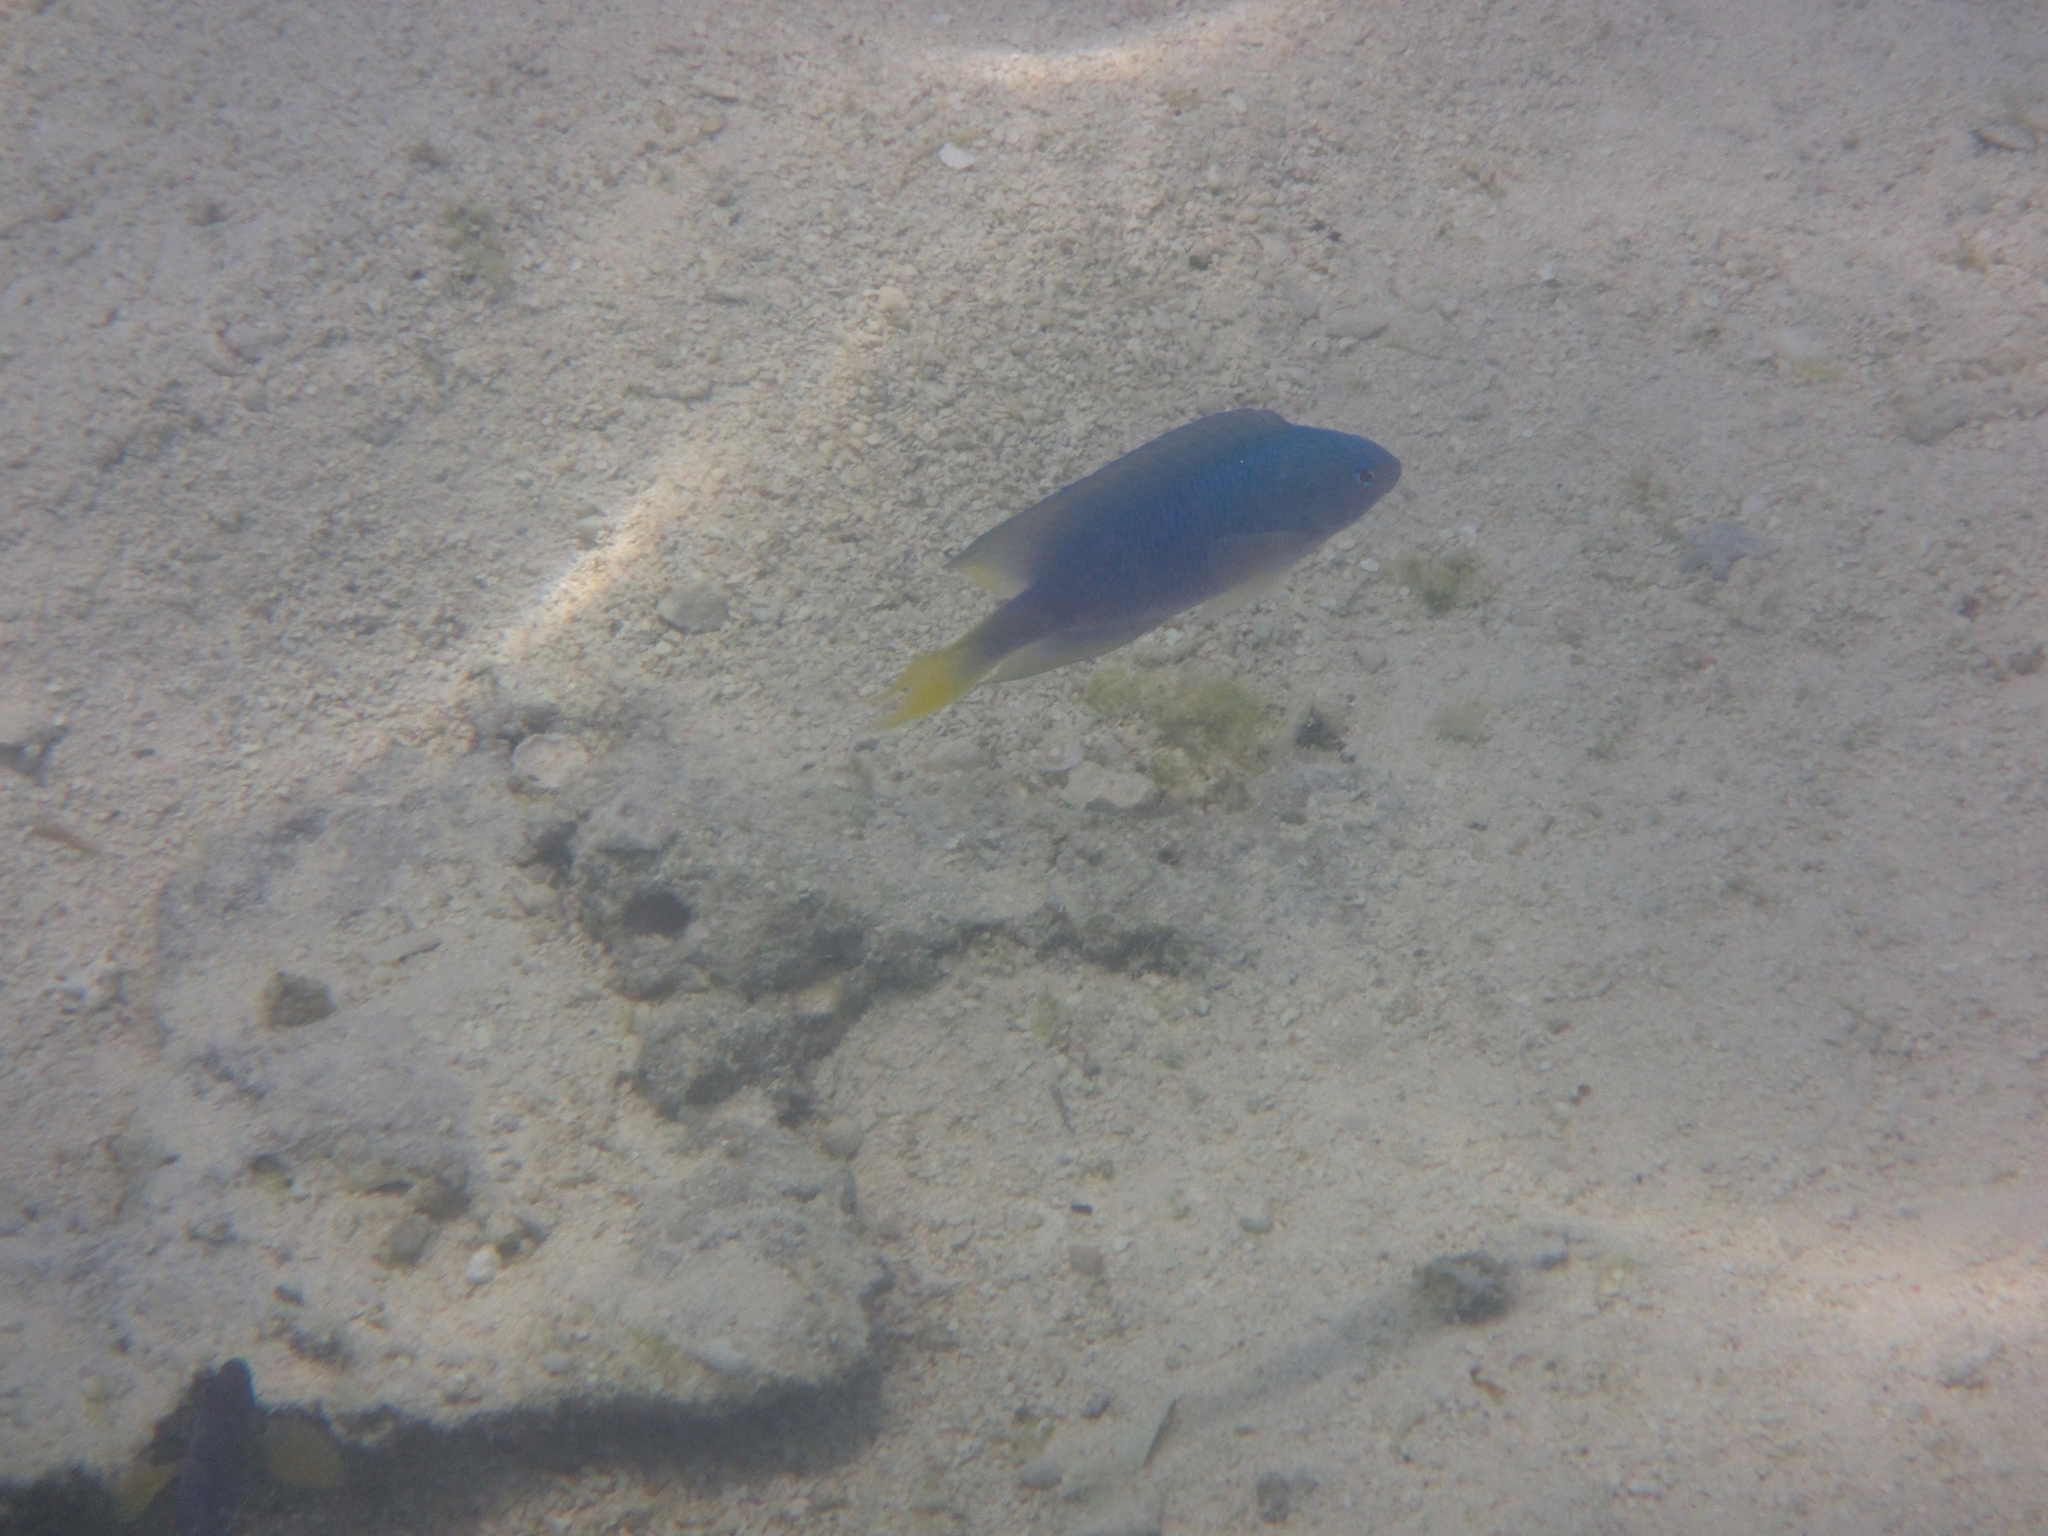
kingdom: Animalia
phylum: Chordata
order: Perciformes
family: Pomacentridae
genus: Pomacentrus
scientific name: Pomacentrus pavo
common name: Sapphire damsel
